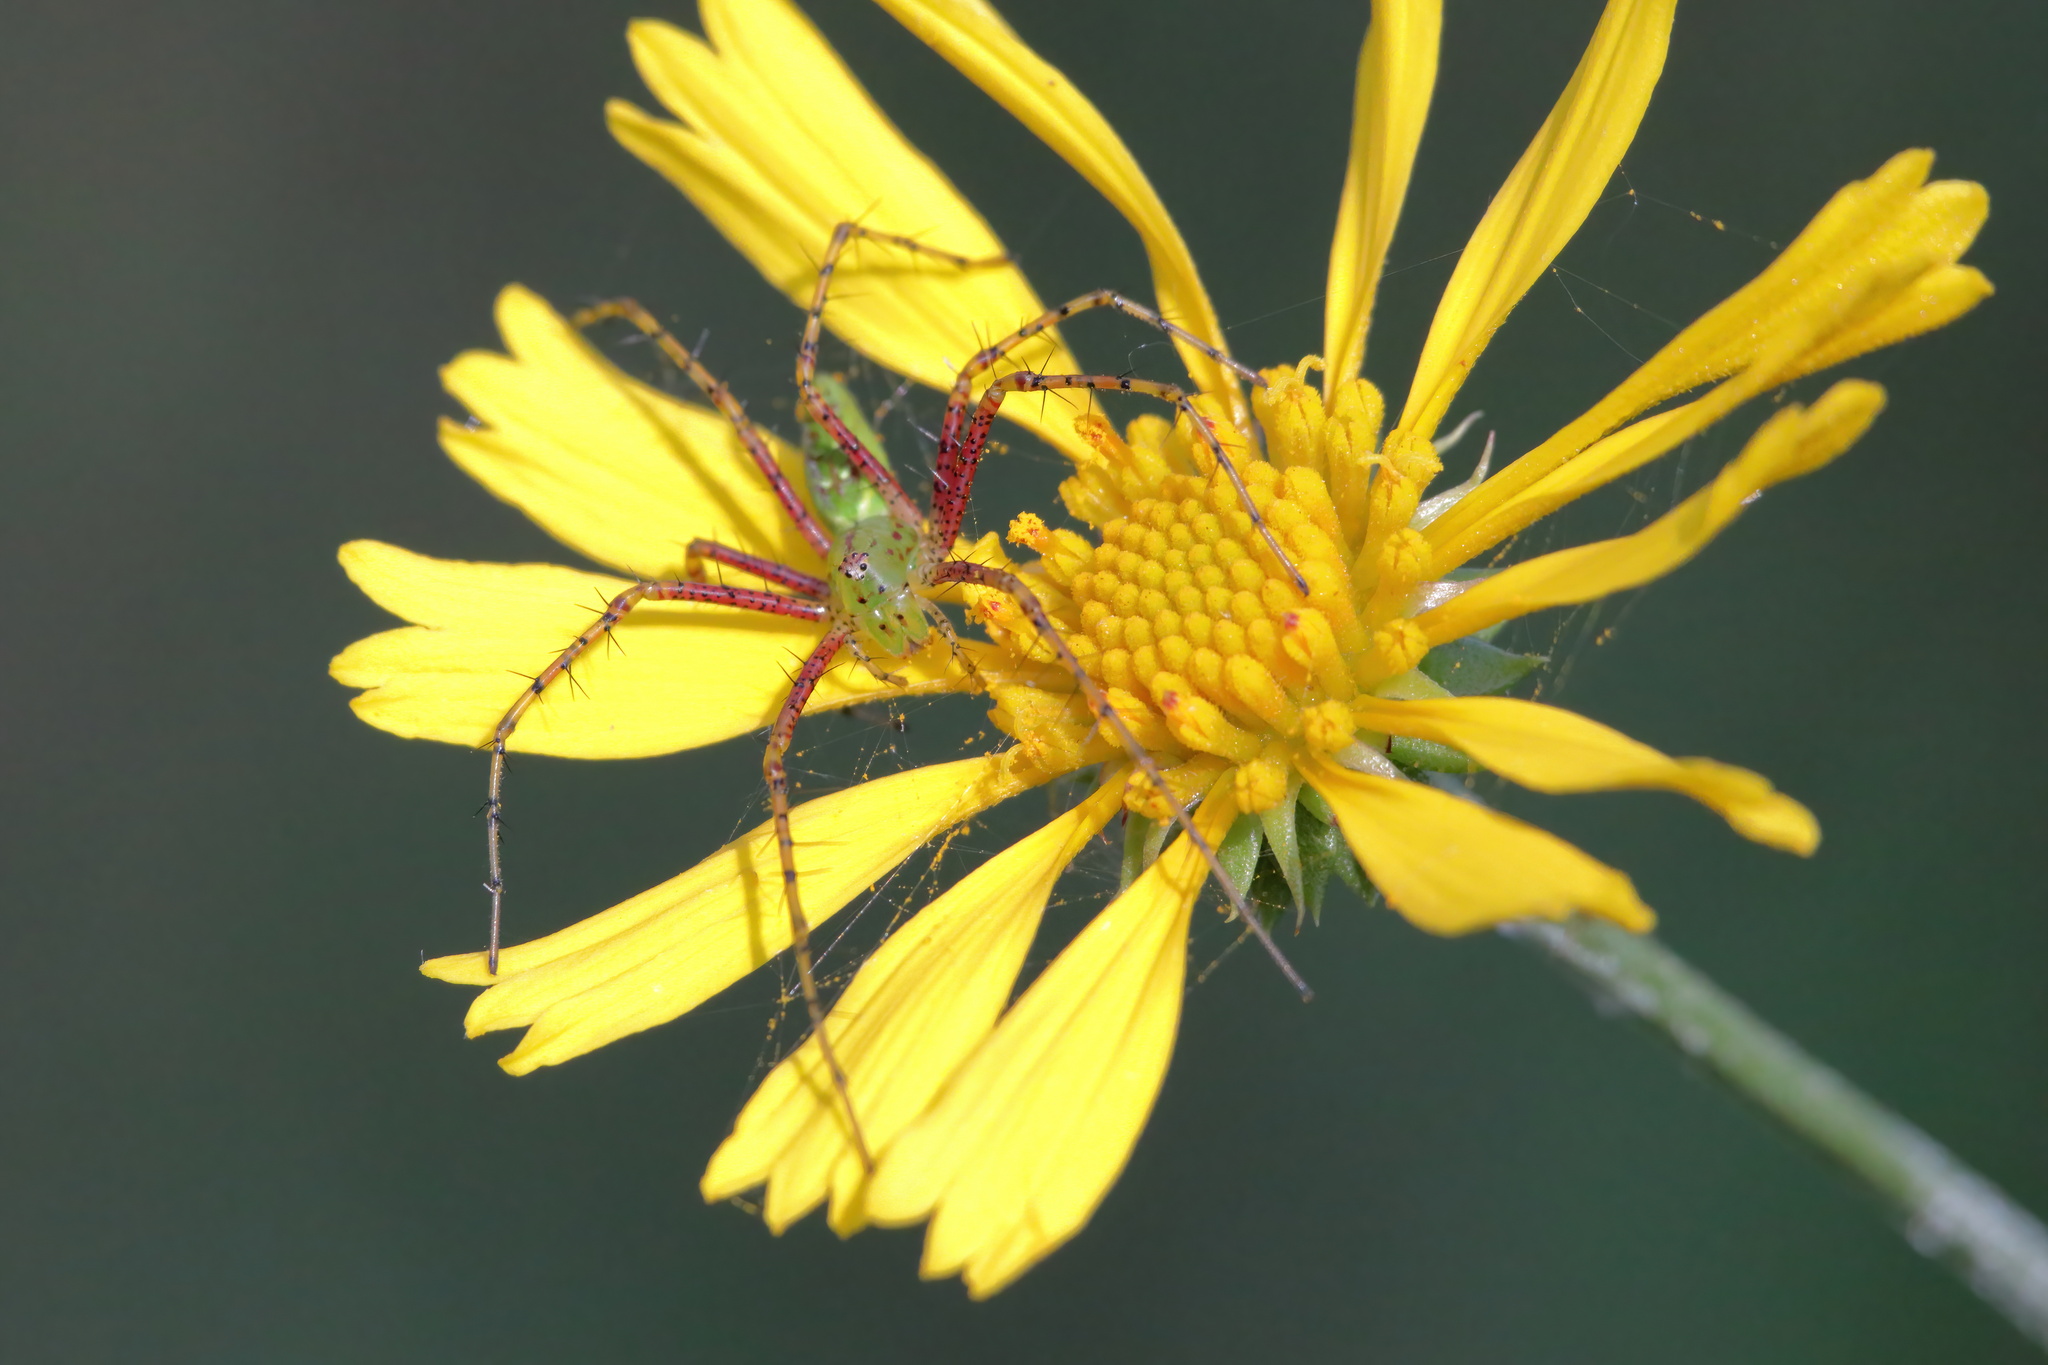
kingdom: Animalia
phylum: Arthropoda
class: Arachnida
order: Araneae
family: Oxyopidae
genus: Peucetia
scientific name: Peucetia viridans
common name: Lynx spiders
